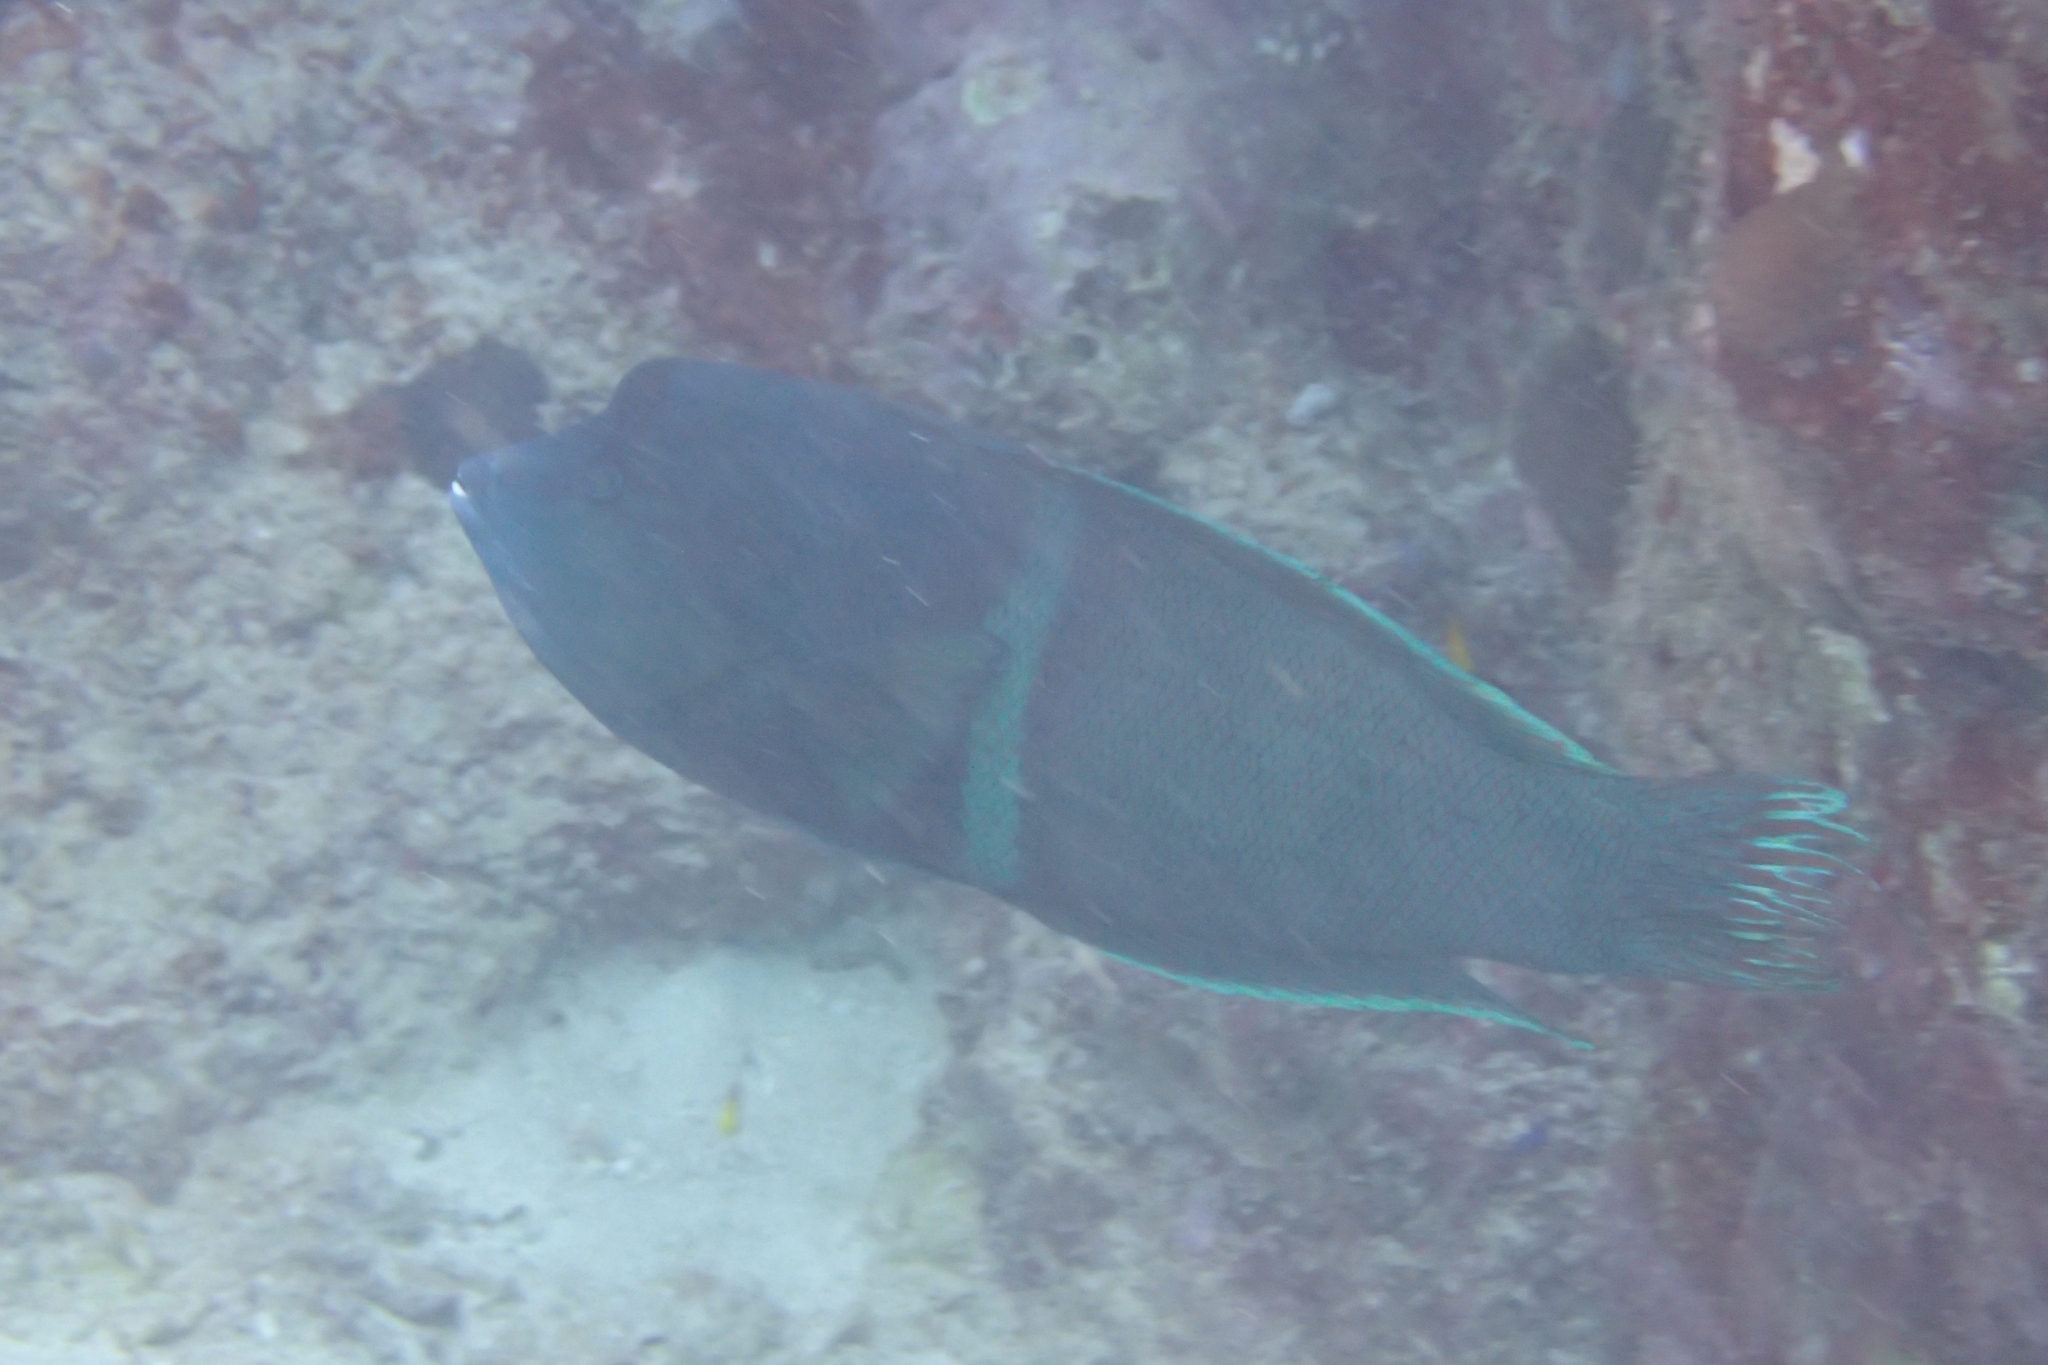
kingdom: Animalia
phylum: Chordata
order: Perciformes
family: Labridae
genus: Coris
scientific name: Coris aygula
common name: Clown coris
